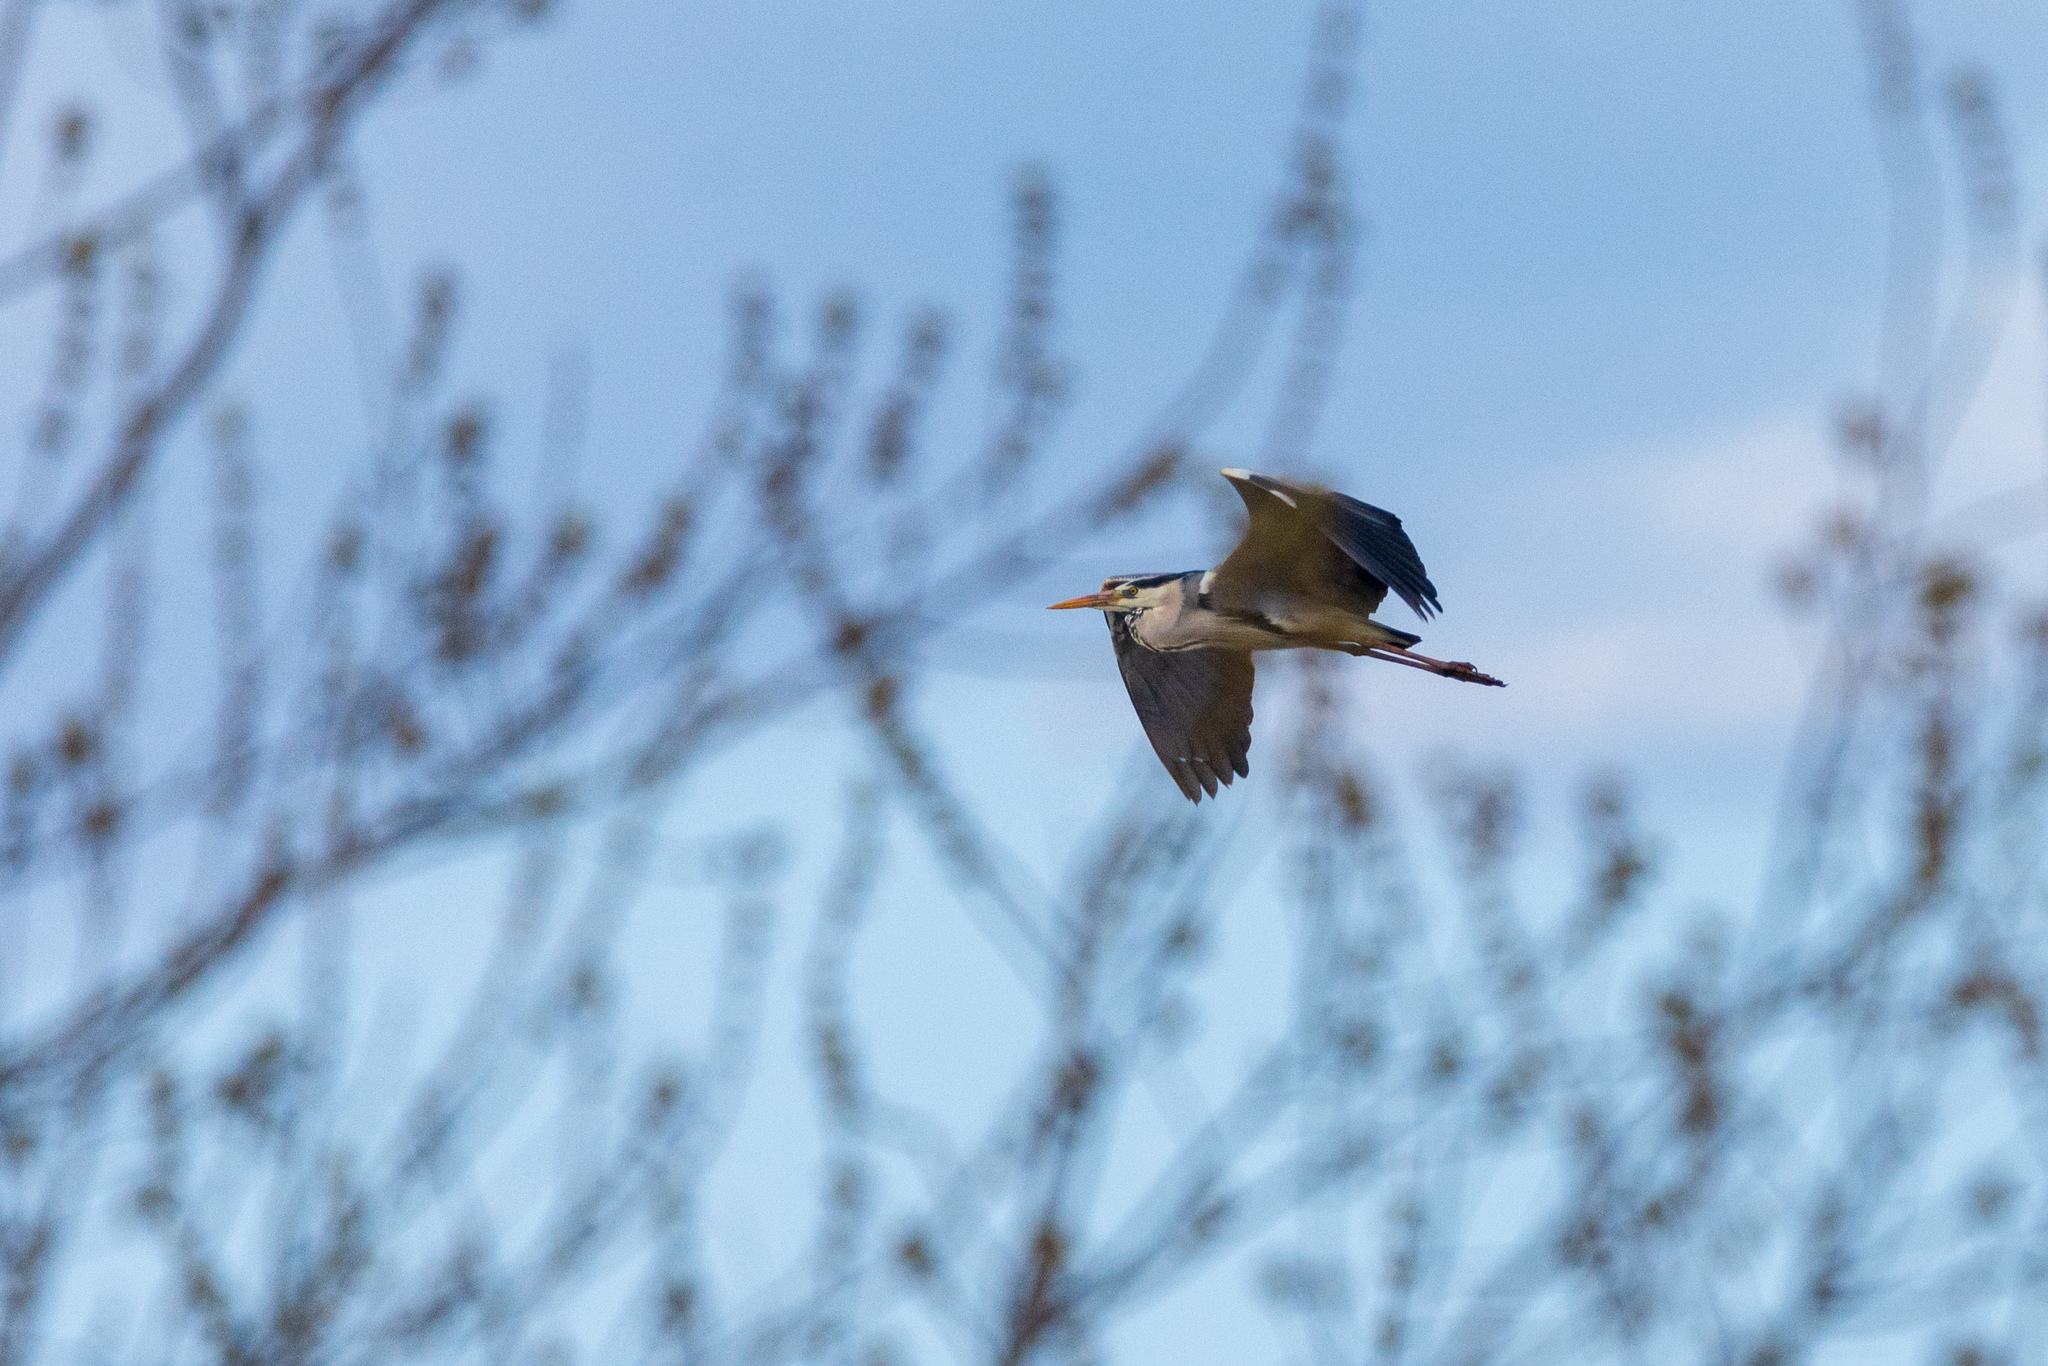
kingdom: Animalia
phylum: Chordata
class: Aves
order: Pelecaniformes
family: Ardeidae
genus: Ardea
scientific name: Ardea cinerea
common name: Grey heron
